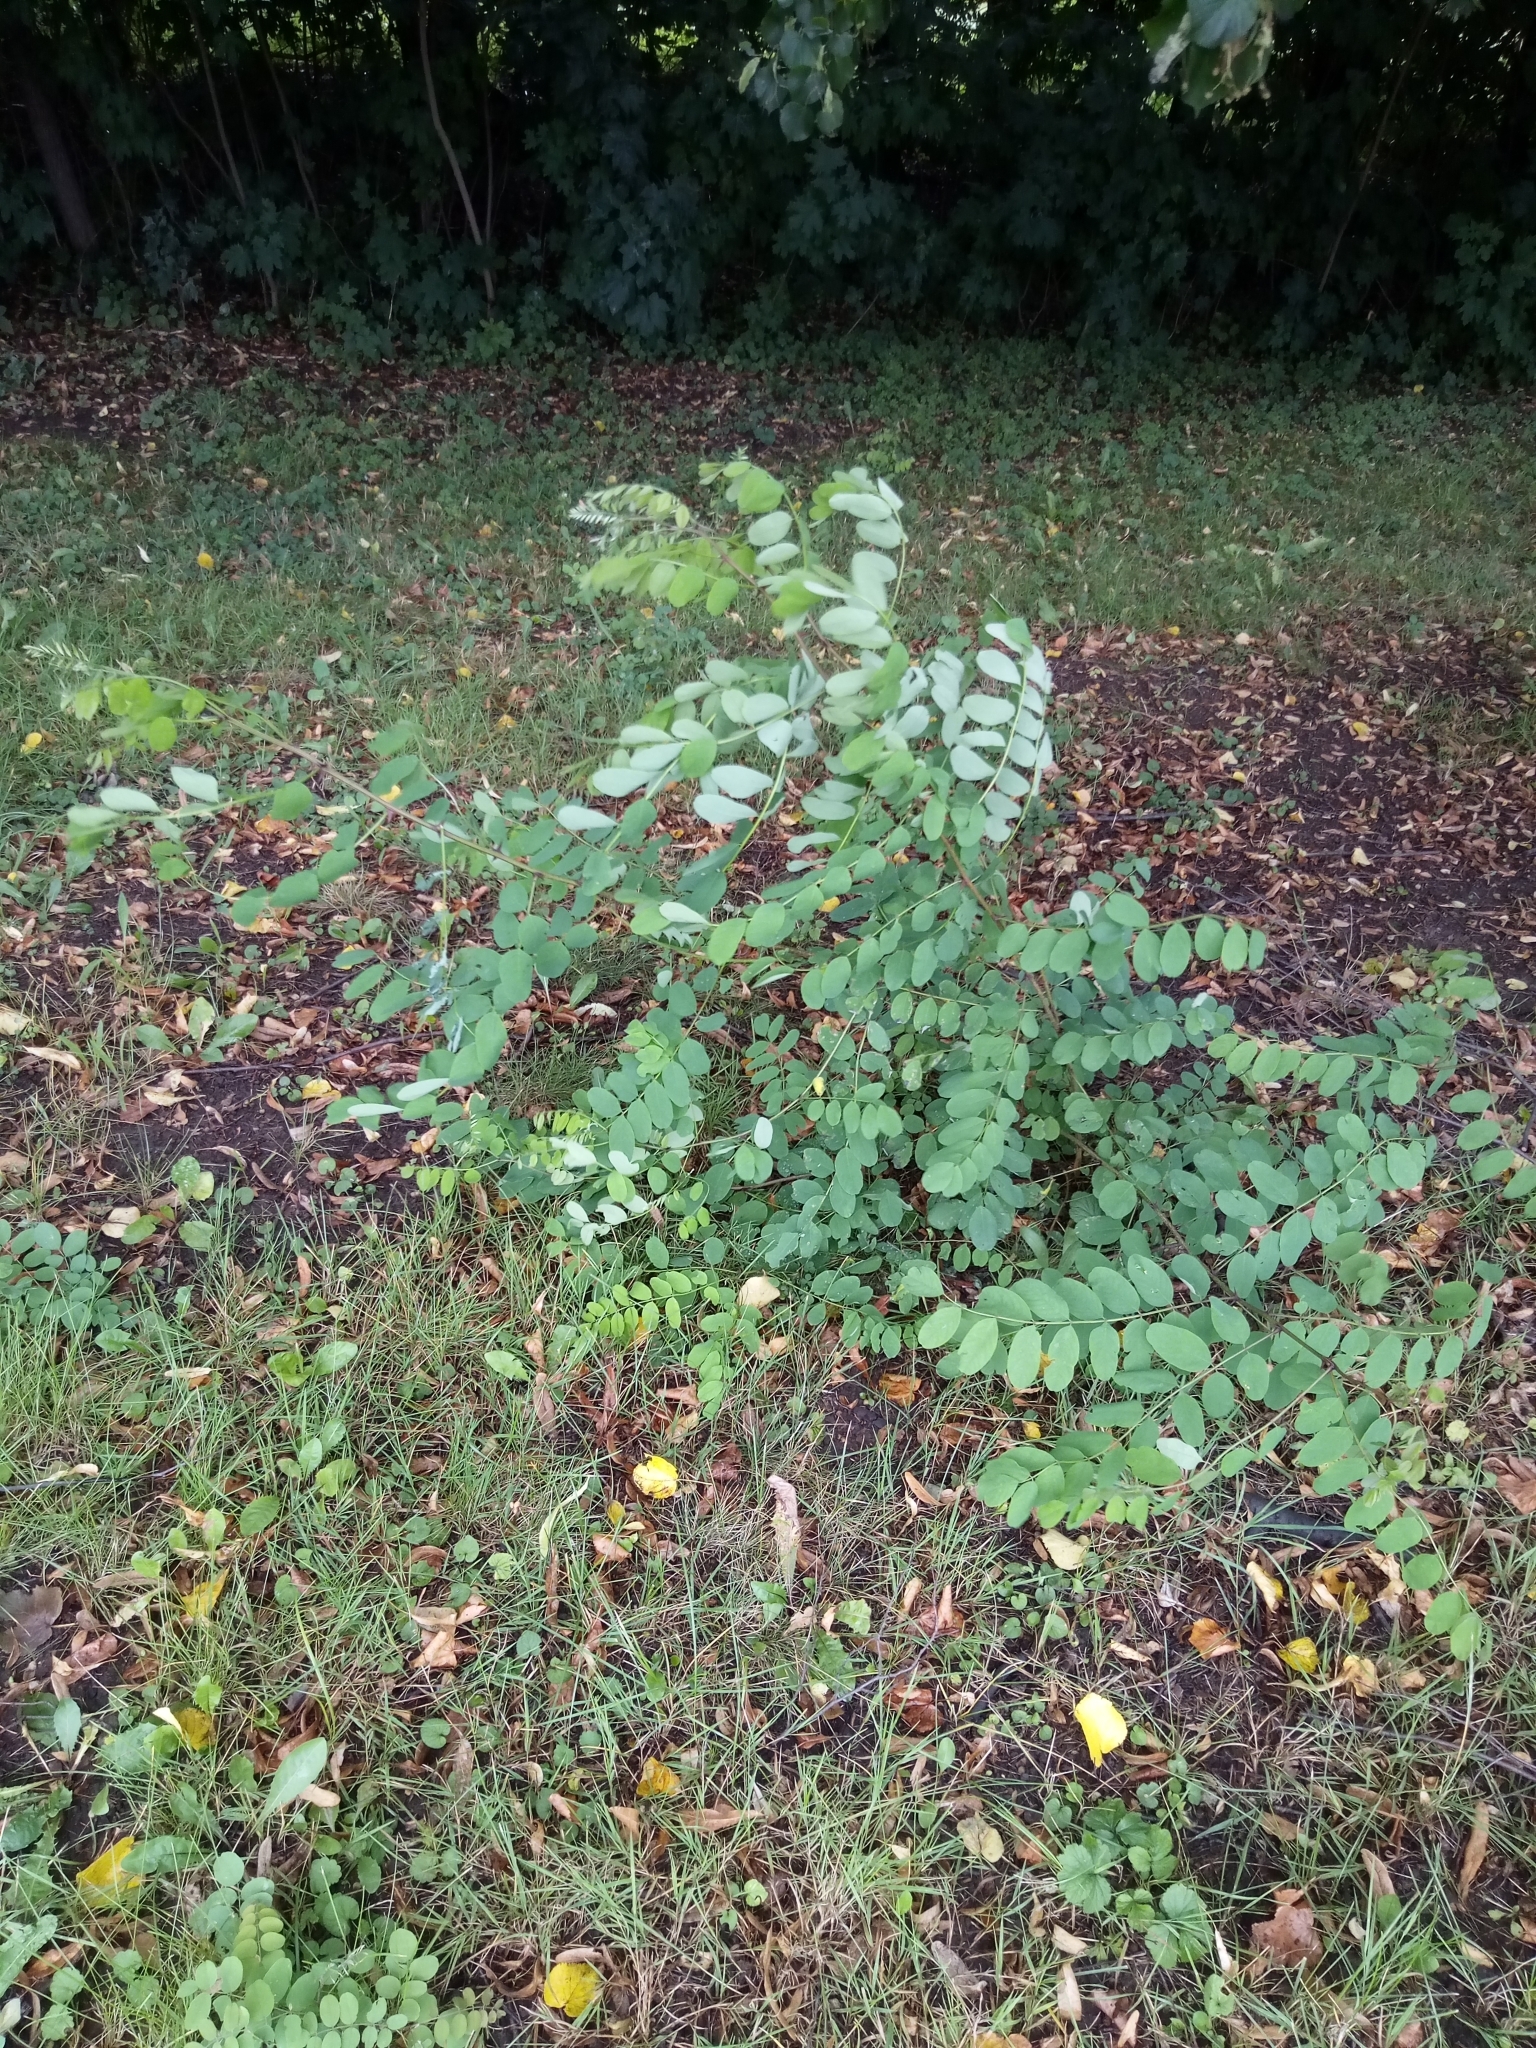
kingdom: Plantae
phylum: Tracheophyta
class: Magnoliopsida
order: Fabales
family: Fabaceae
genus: Robinia
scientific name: Robinia pseudoacacia
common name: Black locust
